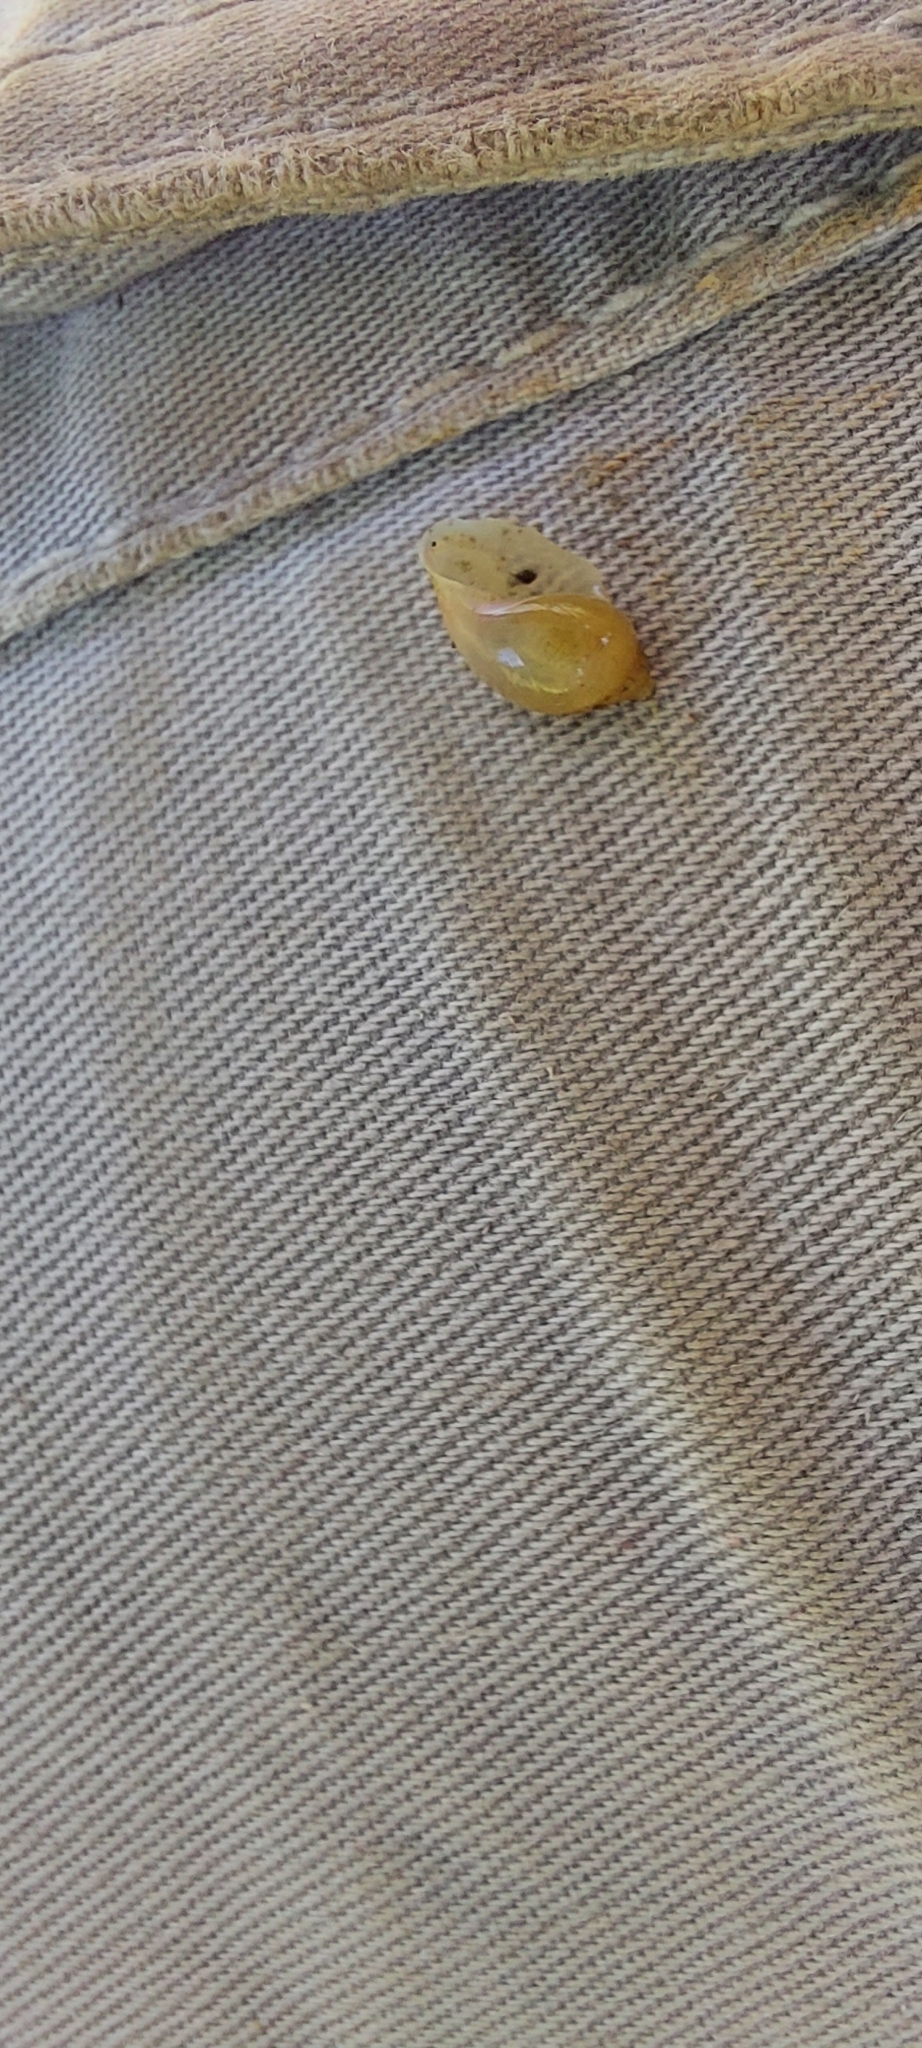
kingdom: Animalia
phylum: Mollusca
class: Gastropoda
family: Physidae
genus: Physella
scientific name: Physella acuta
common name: European physa
